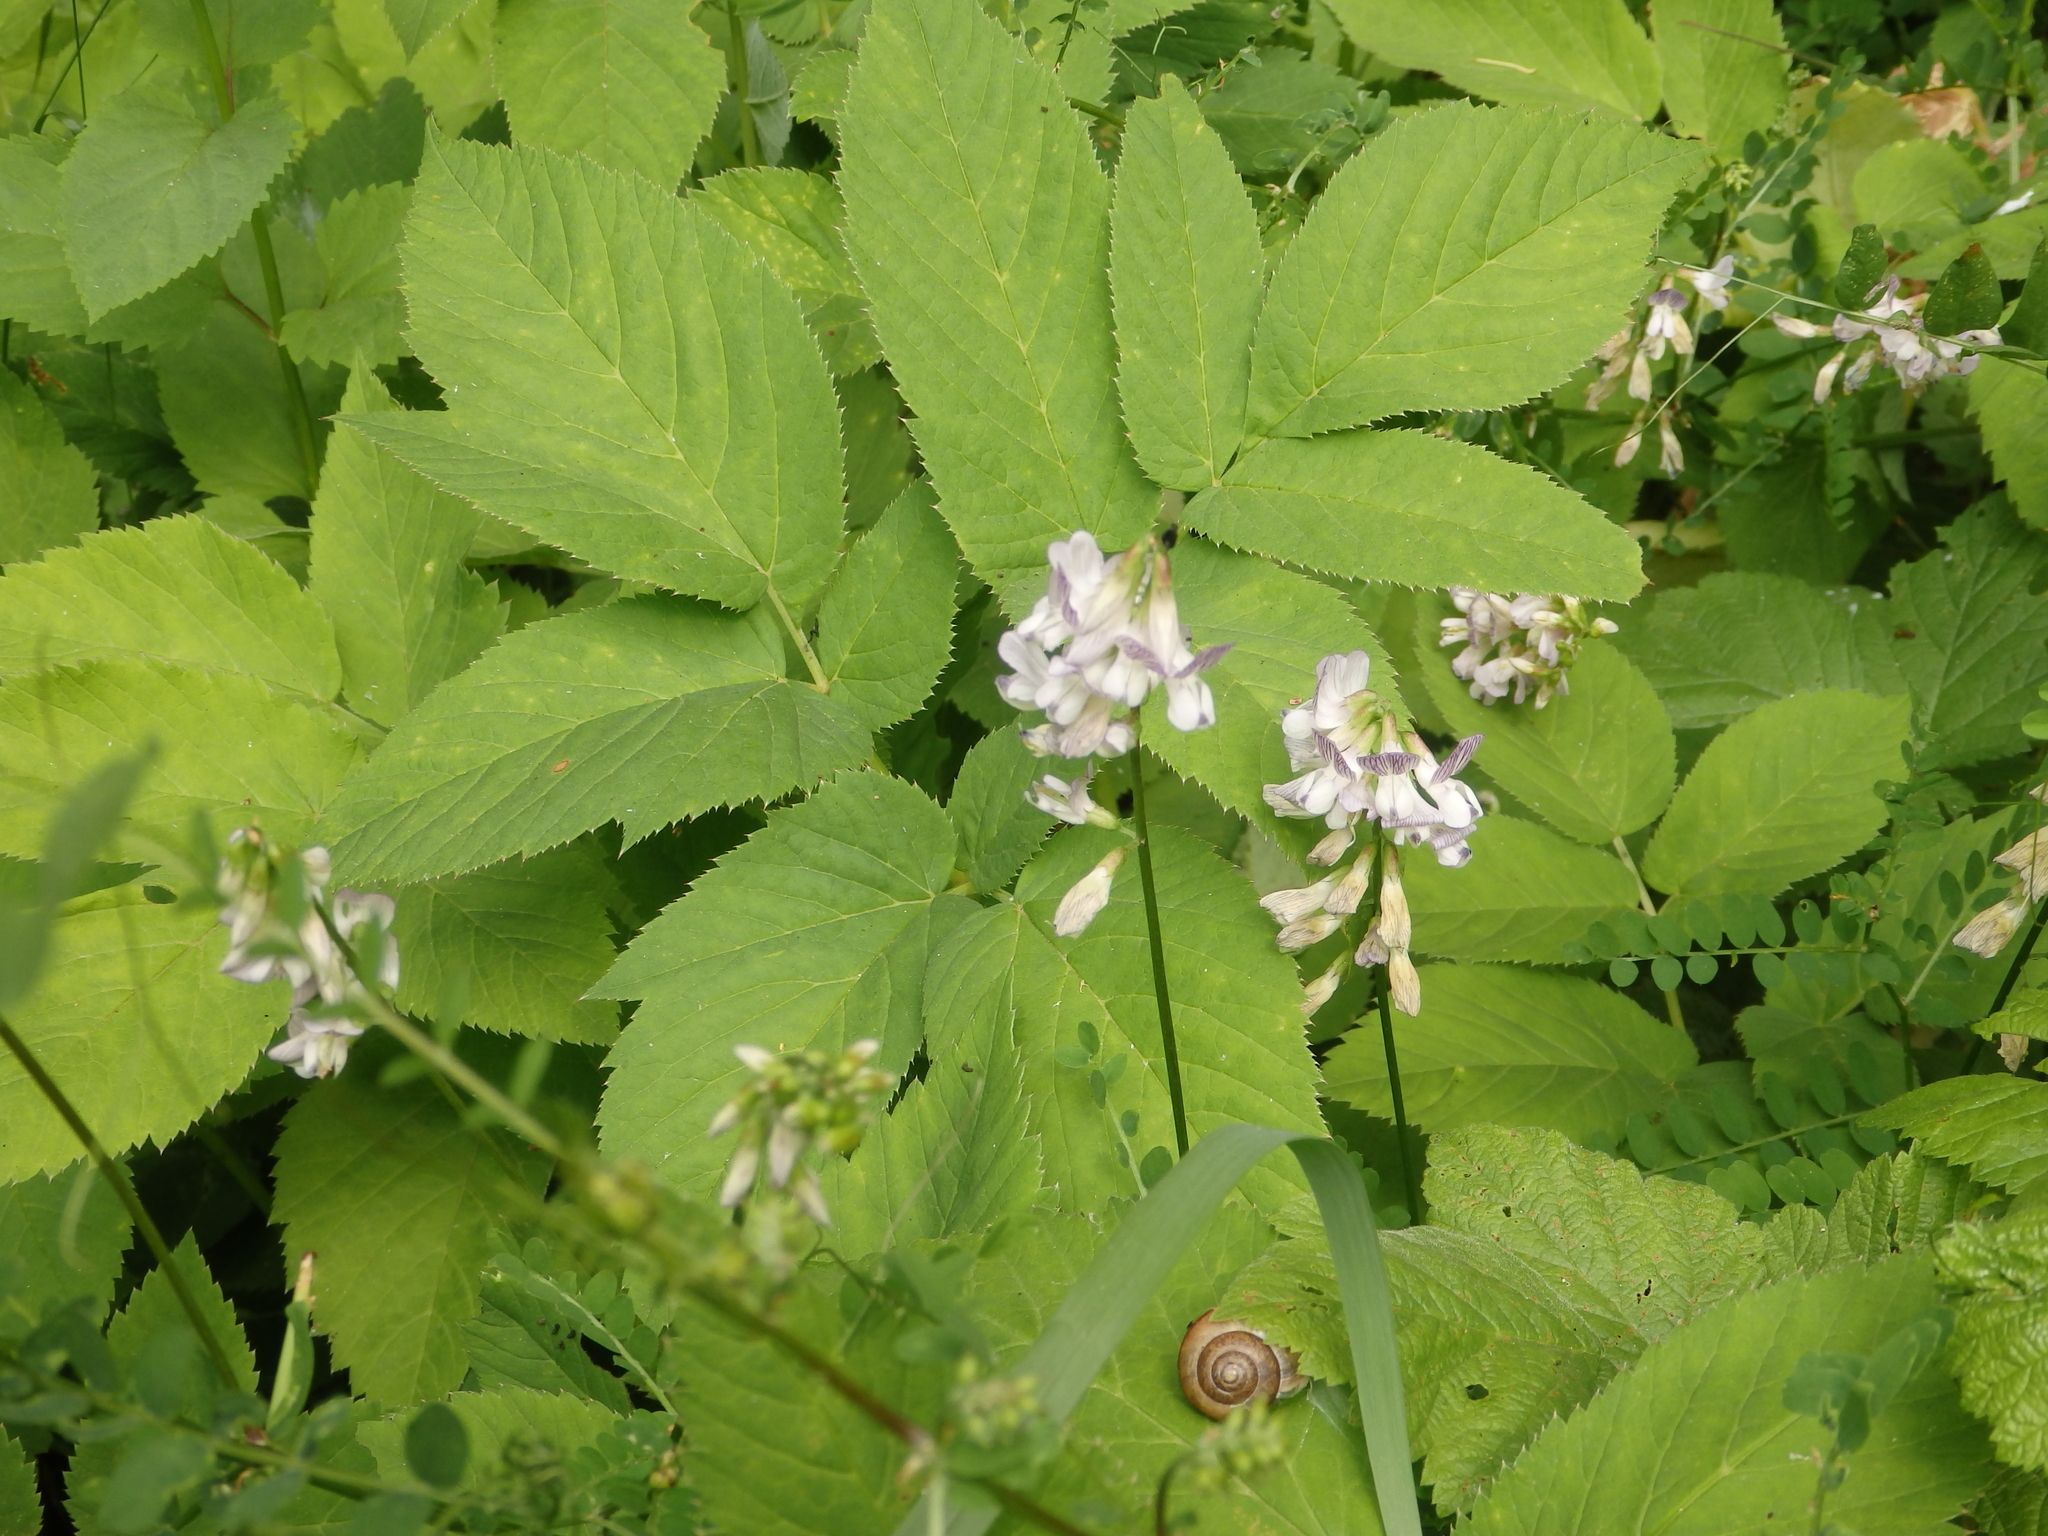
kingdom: Plantae
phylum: Tracheophyta
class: Magnoliopsida
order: Fabales
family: Fabaceae
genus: Vicia
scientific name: Vicia sylvatica
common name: Wood vetch
